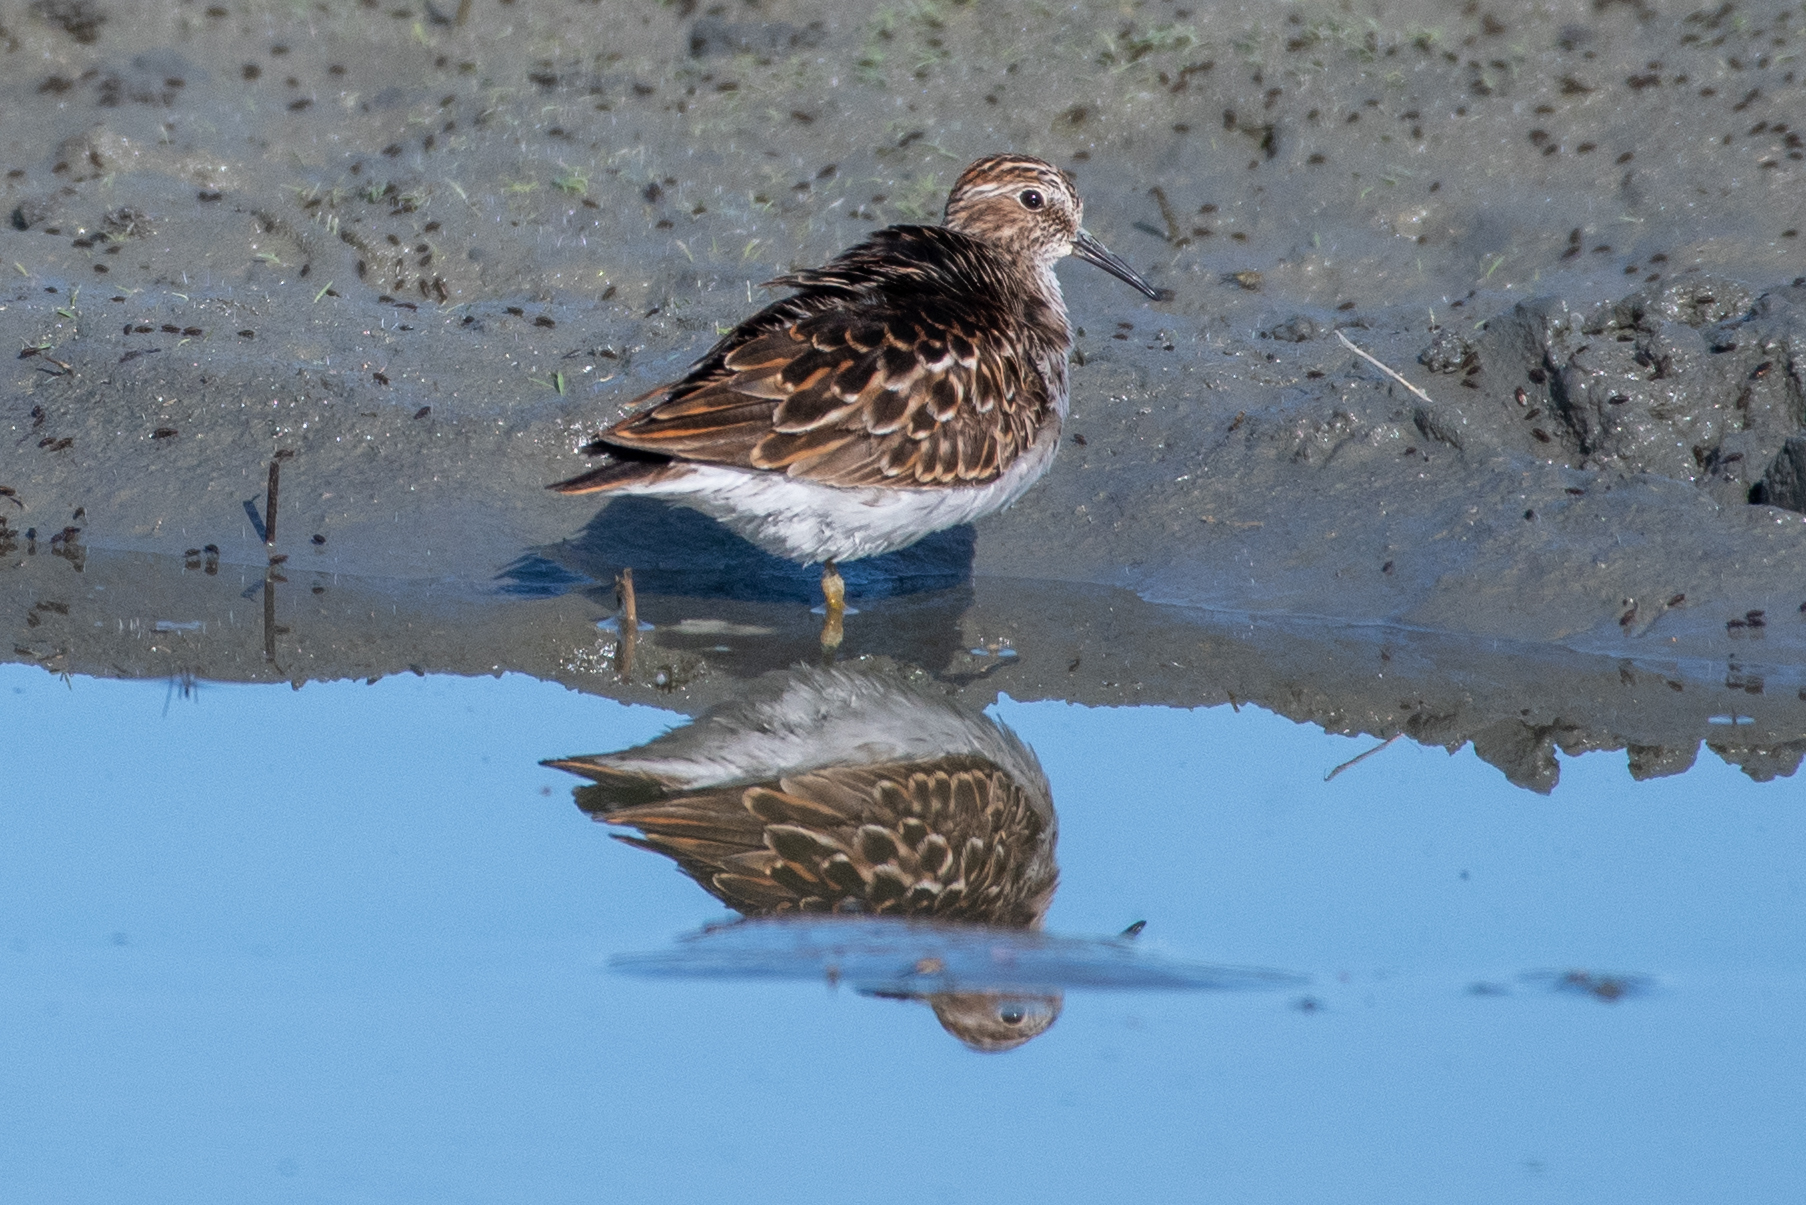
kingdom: Animalia
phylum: Chordata
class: Aves
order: Charadriiformes
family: Scolopacidae
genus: Calidris
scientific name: Calidris minutilla
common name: Least sandpiper
